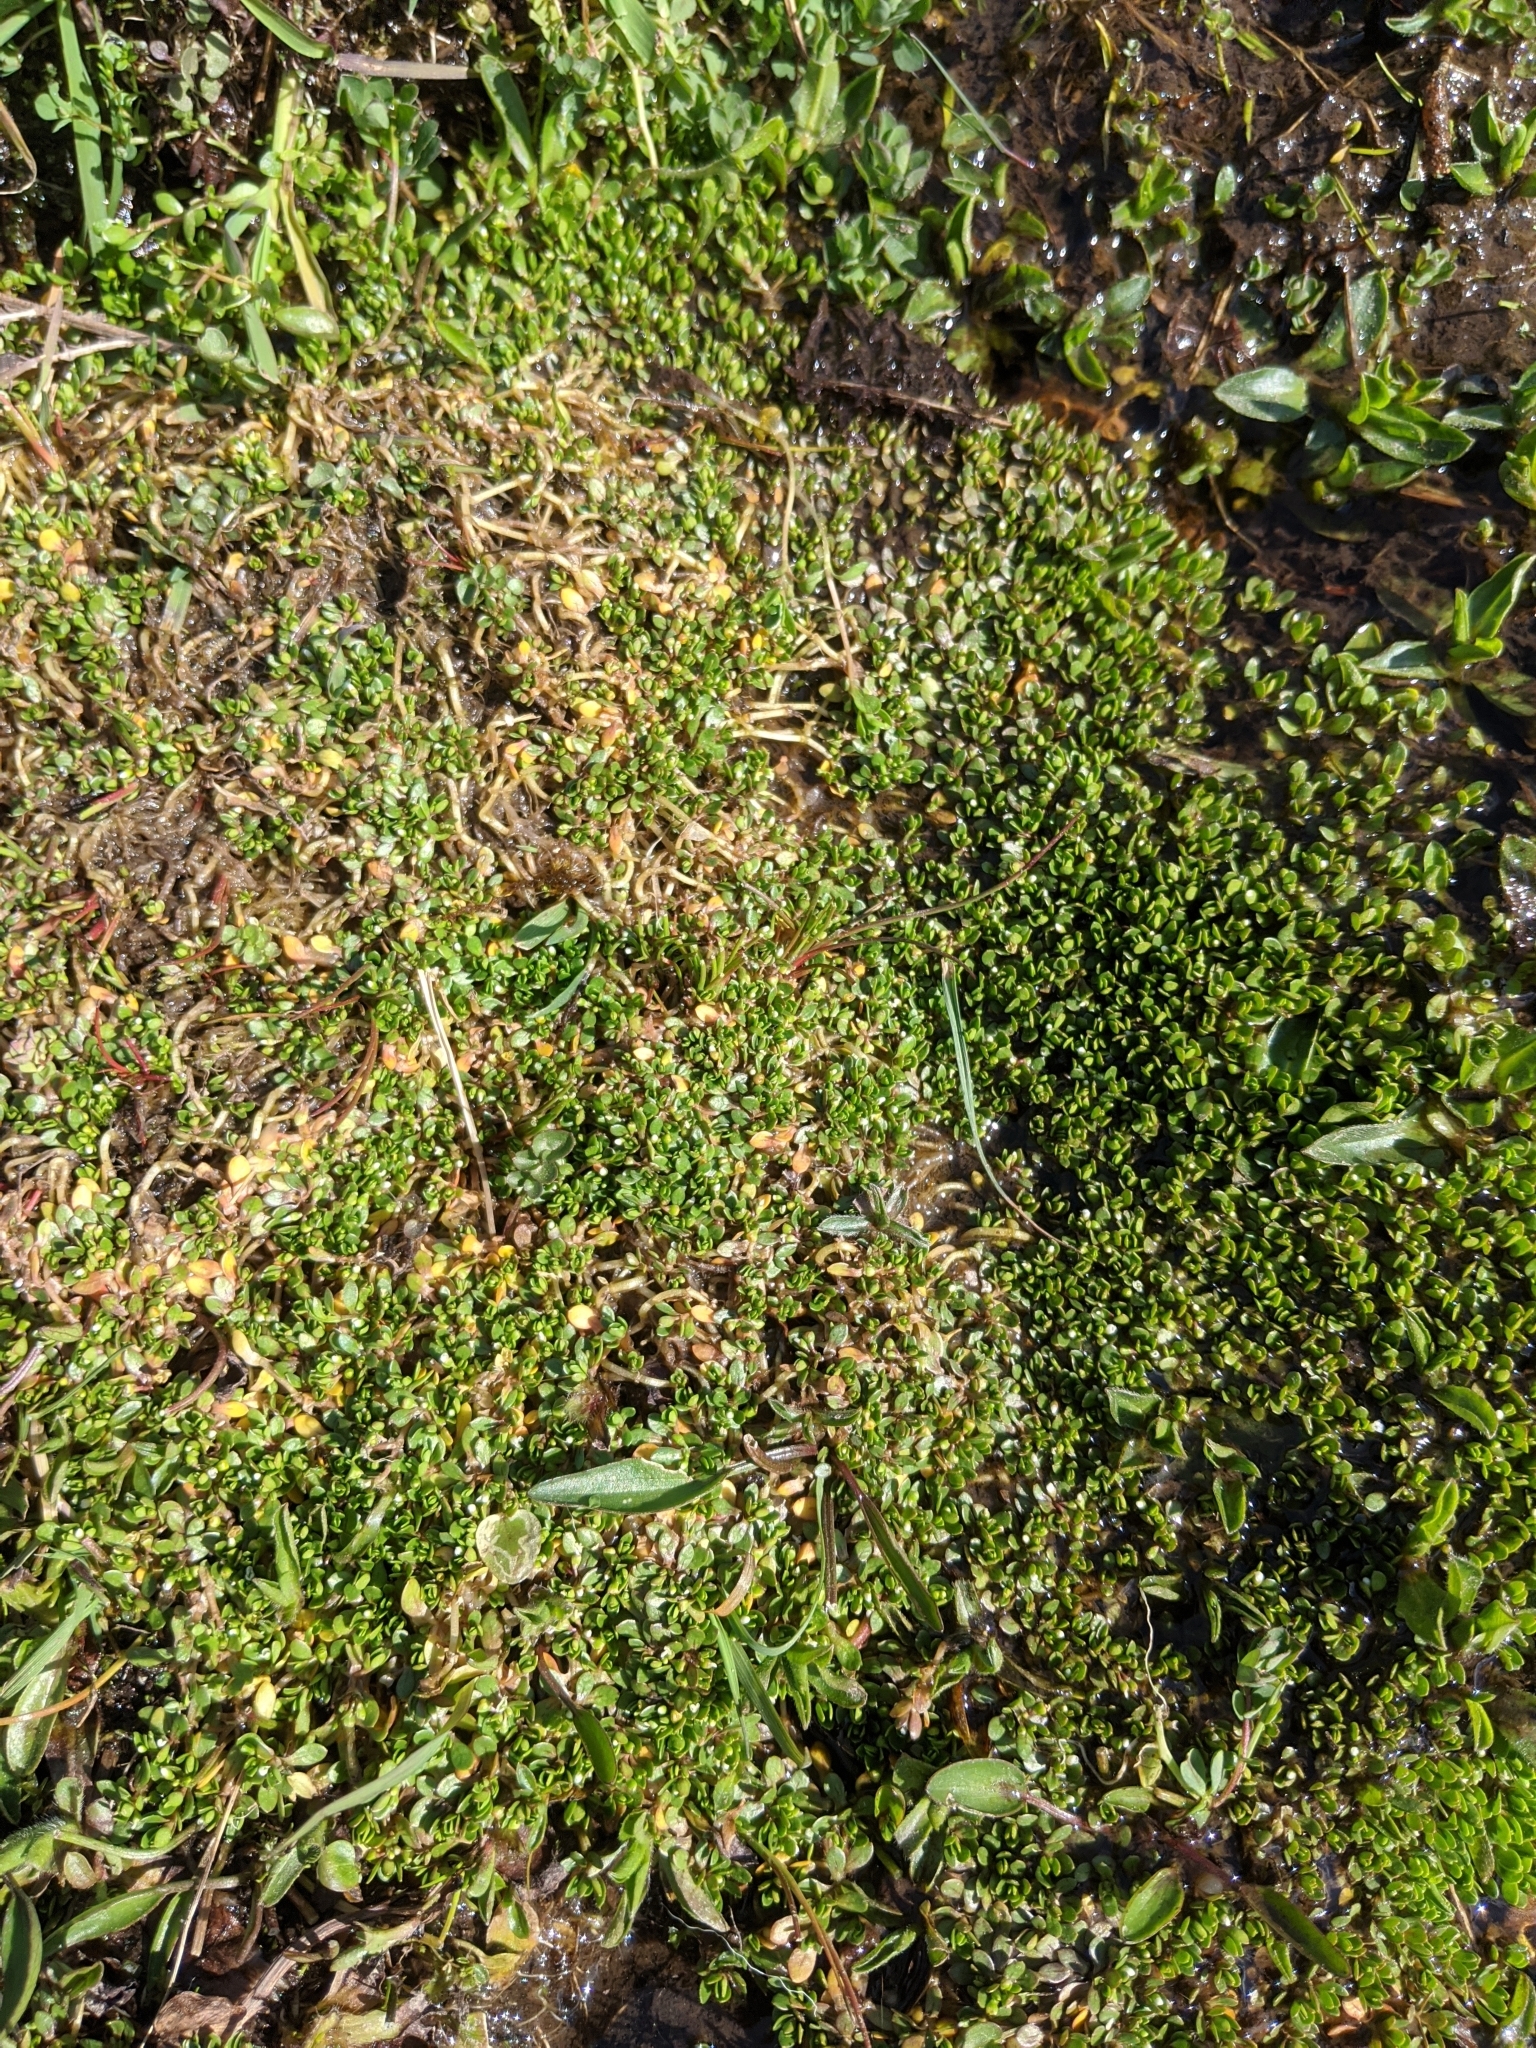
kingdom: Plantae
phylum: Tracheophyta
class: Magnoliopsida
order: Caryophyllales
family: Montiaceae
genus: Montia
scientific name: Montia fontana
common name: Blinks
